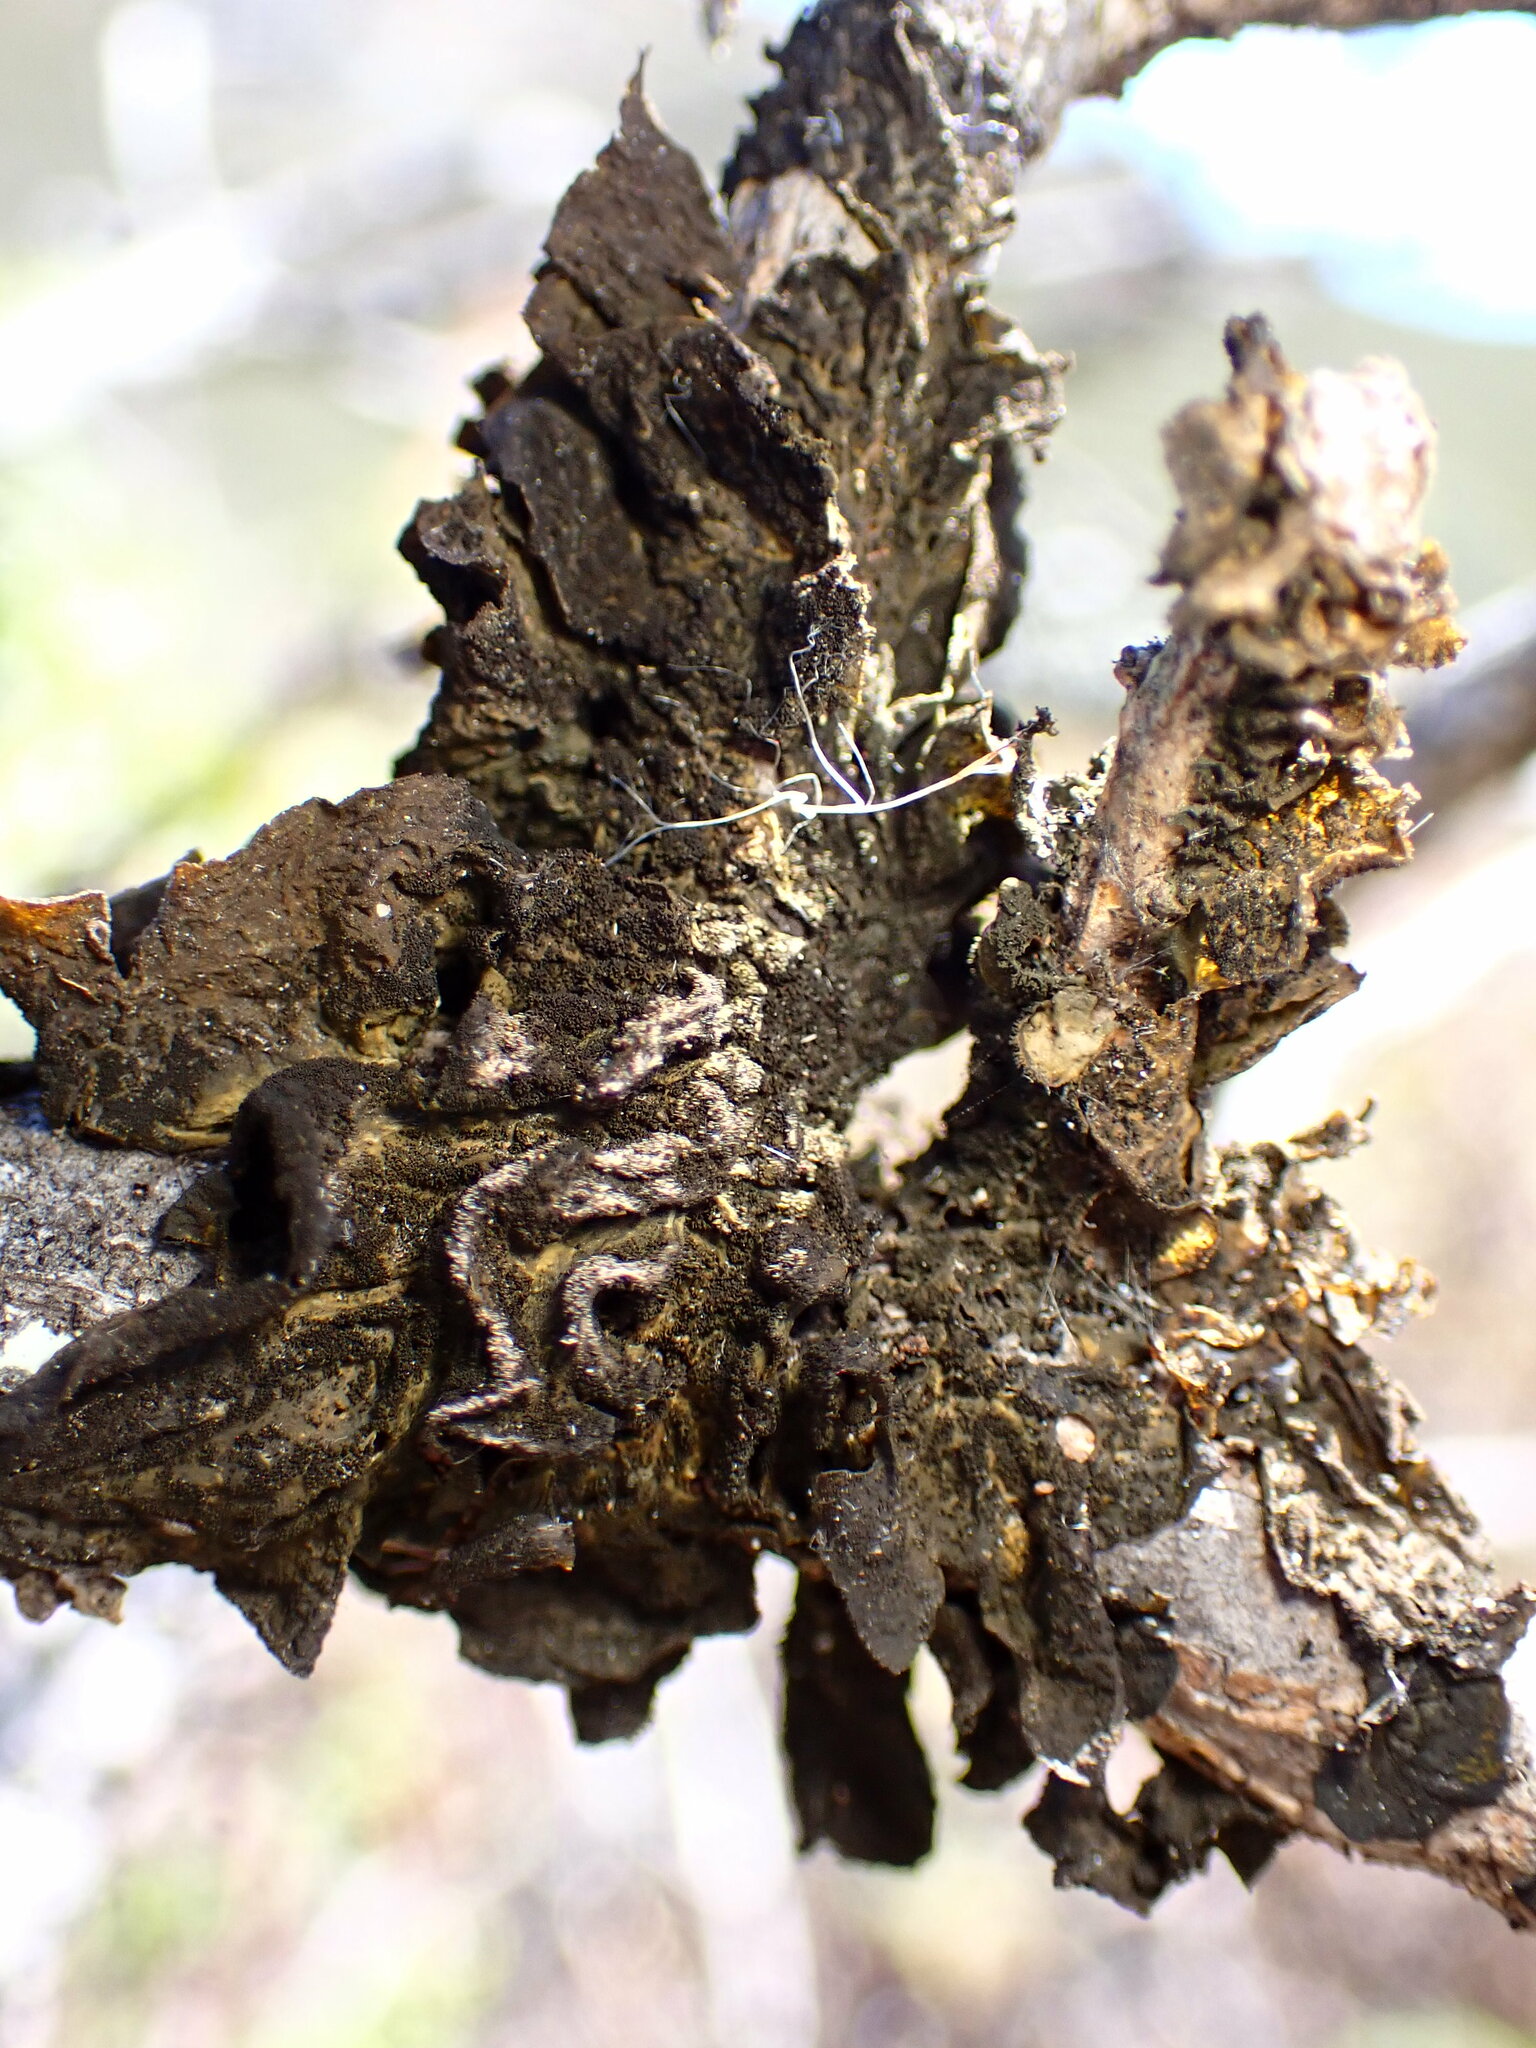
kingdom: Fungi
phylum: Ascomycota
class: Lecanoromycetes
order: Peltigerales
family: Collemataceae
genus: Collema
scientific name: Collema furfuraceum
